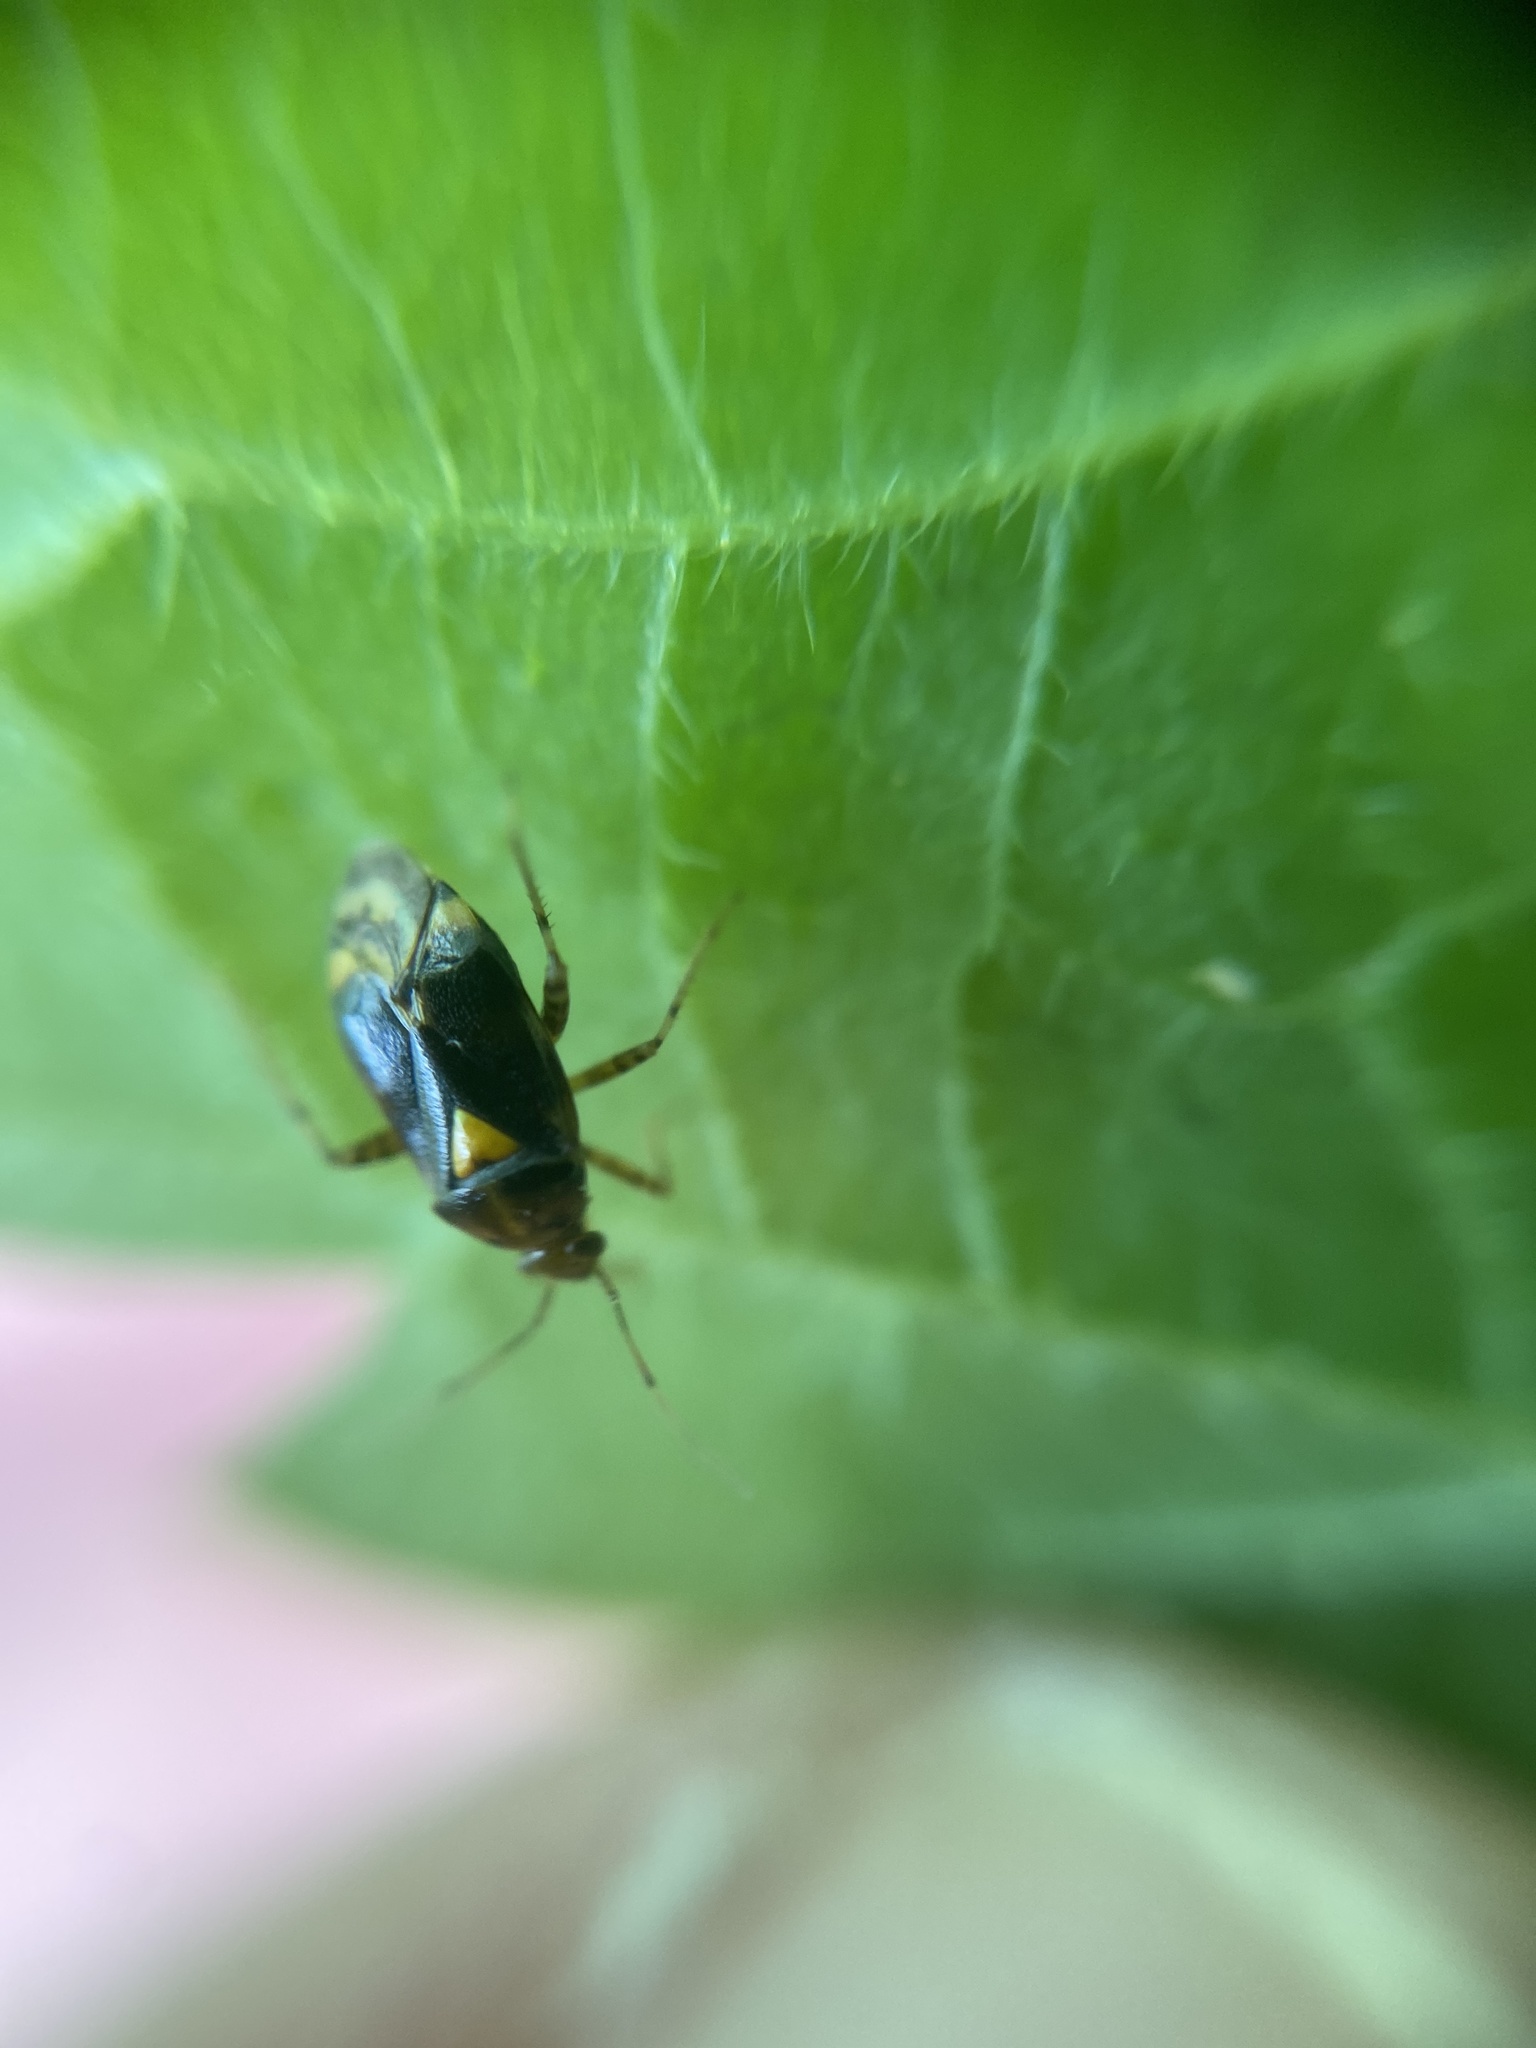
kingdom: Animalia
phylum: Arthropoda
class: Insecta
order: Hemiptera
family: Miridae
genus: Liocoris
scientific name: Liocoris tripustulatus
